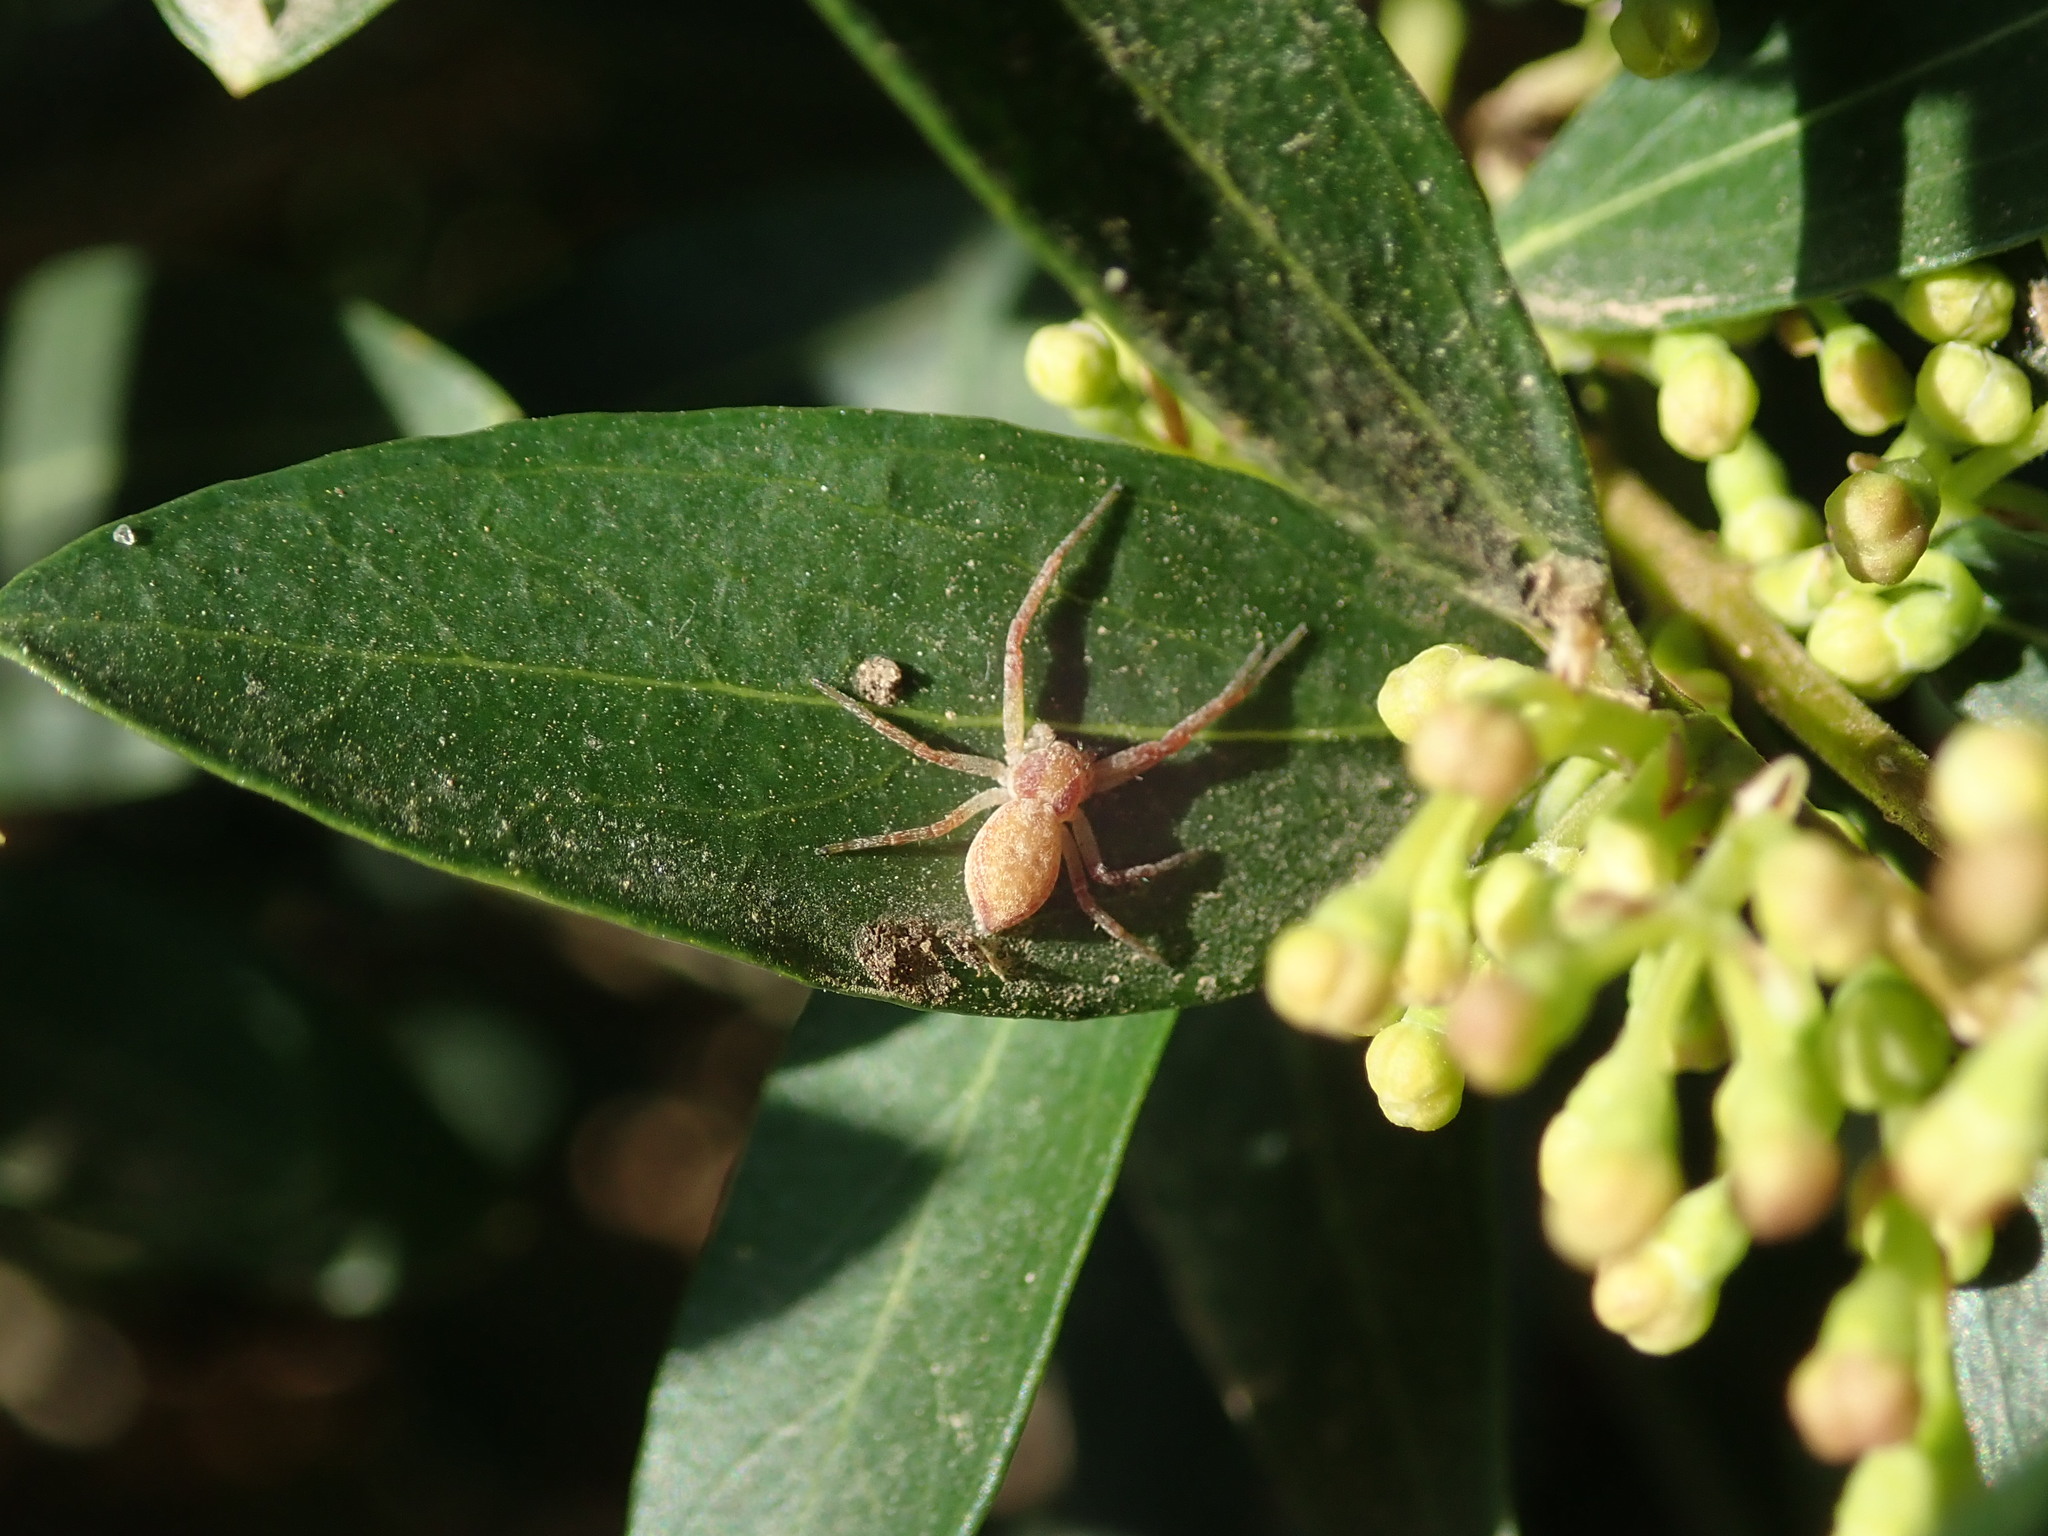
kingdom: Animalia
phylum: Arthropoda
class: Arachnida
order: Araneae
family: Philodromidae
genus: Philodromus
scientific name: Philodromus
